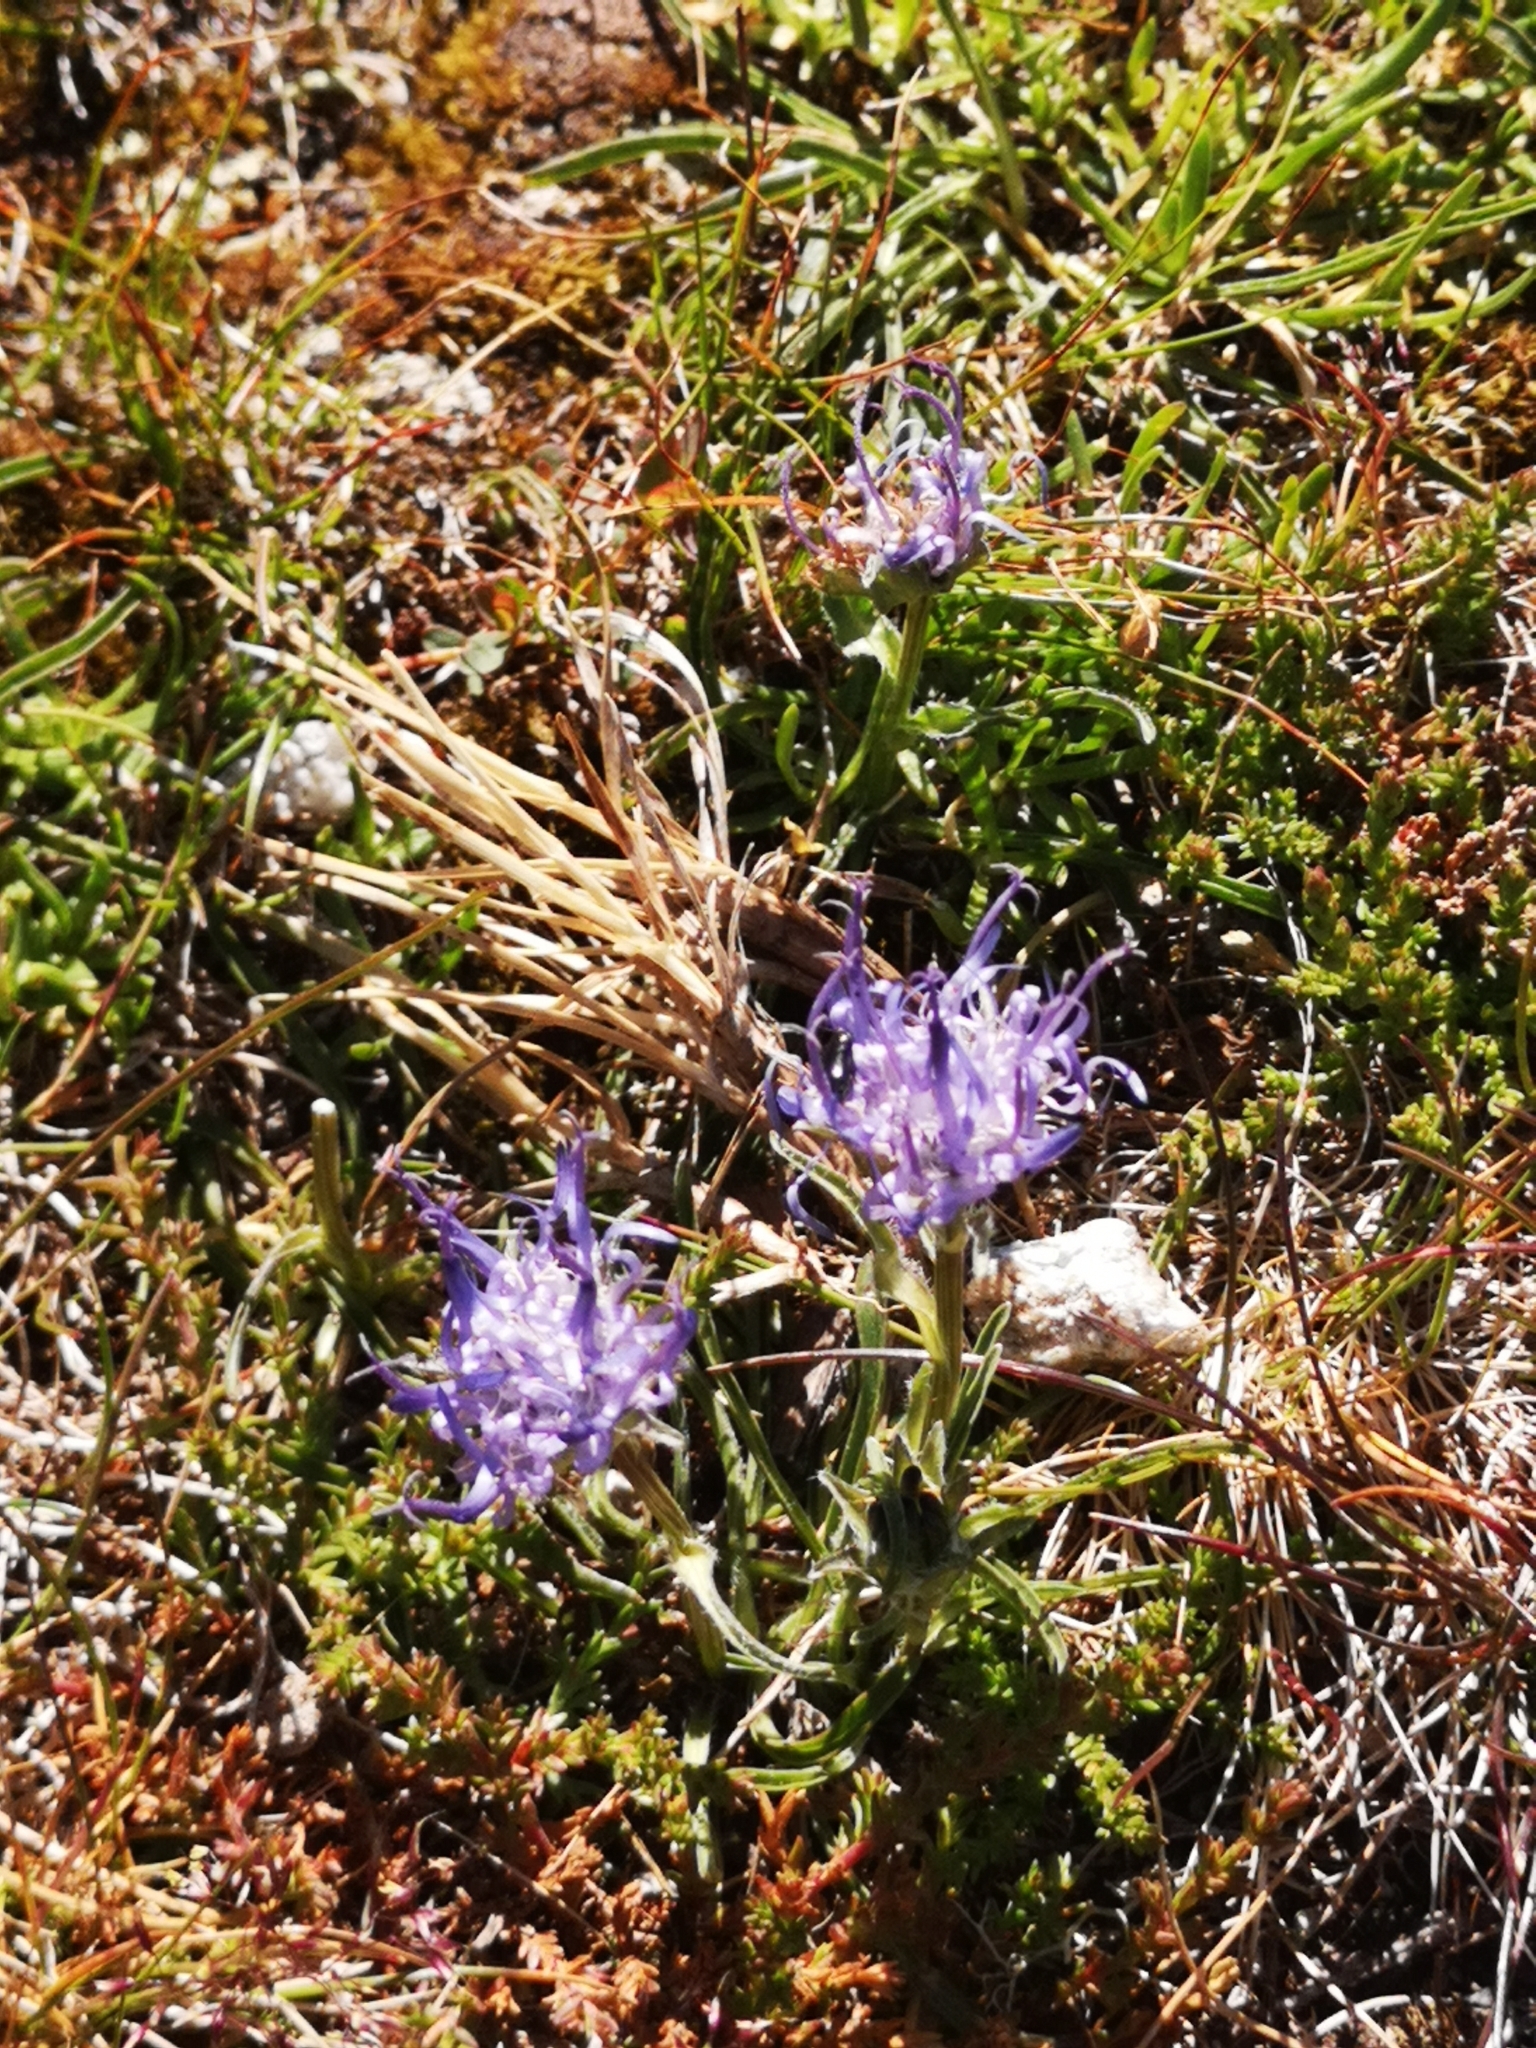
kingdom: Plantae
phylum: Tracheophyta
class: Magnoliopsida
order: Asterales
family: Campanulaceae
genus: Phyteuma
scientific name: Phyteuma confusum
